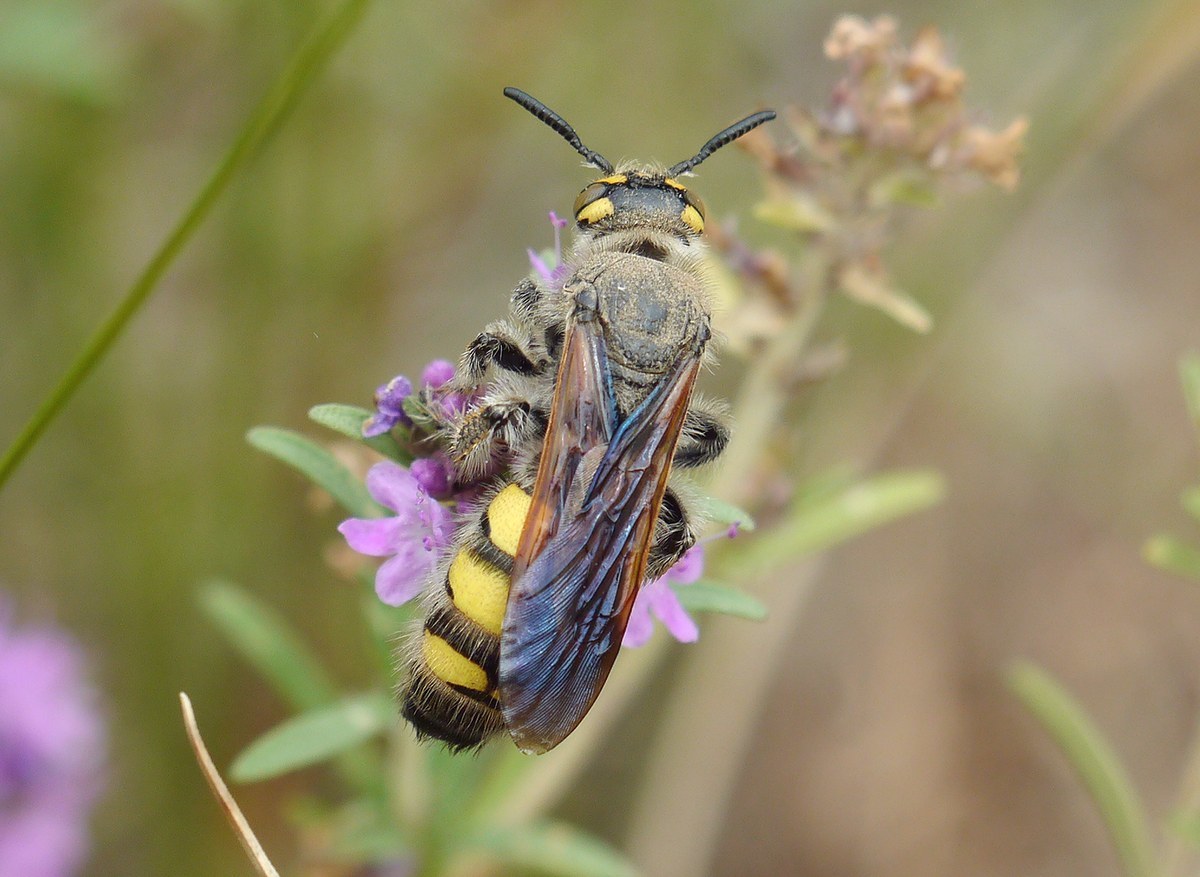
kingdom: Animalia
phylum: Arthropoda
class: Insecta
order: Hymenoptera
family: Vespidae
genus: Vespa
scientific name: Vespa sexmaculata
